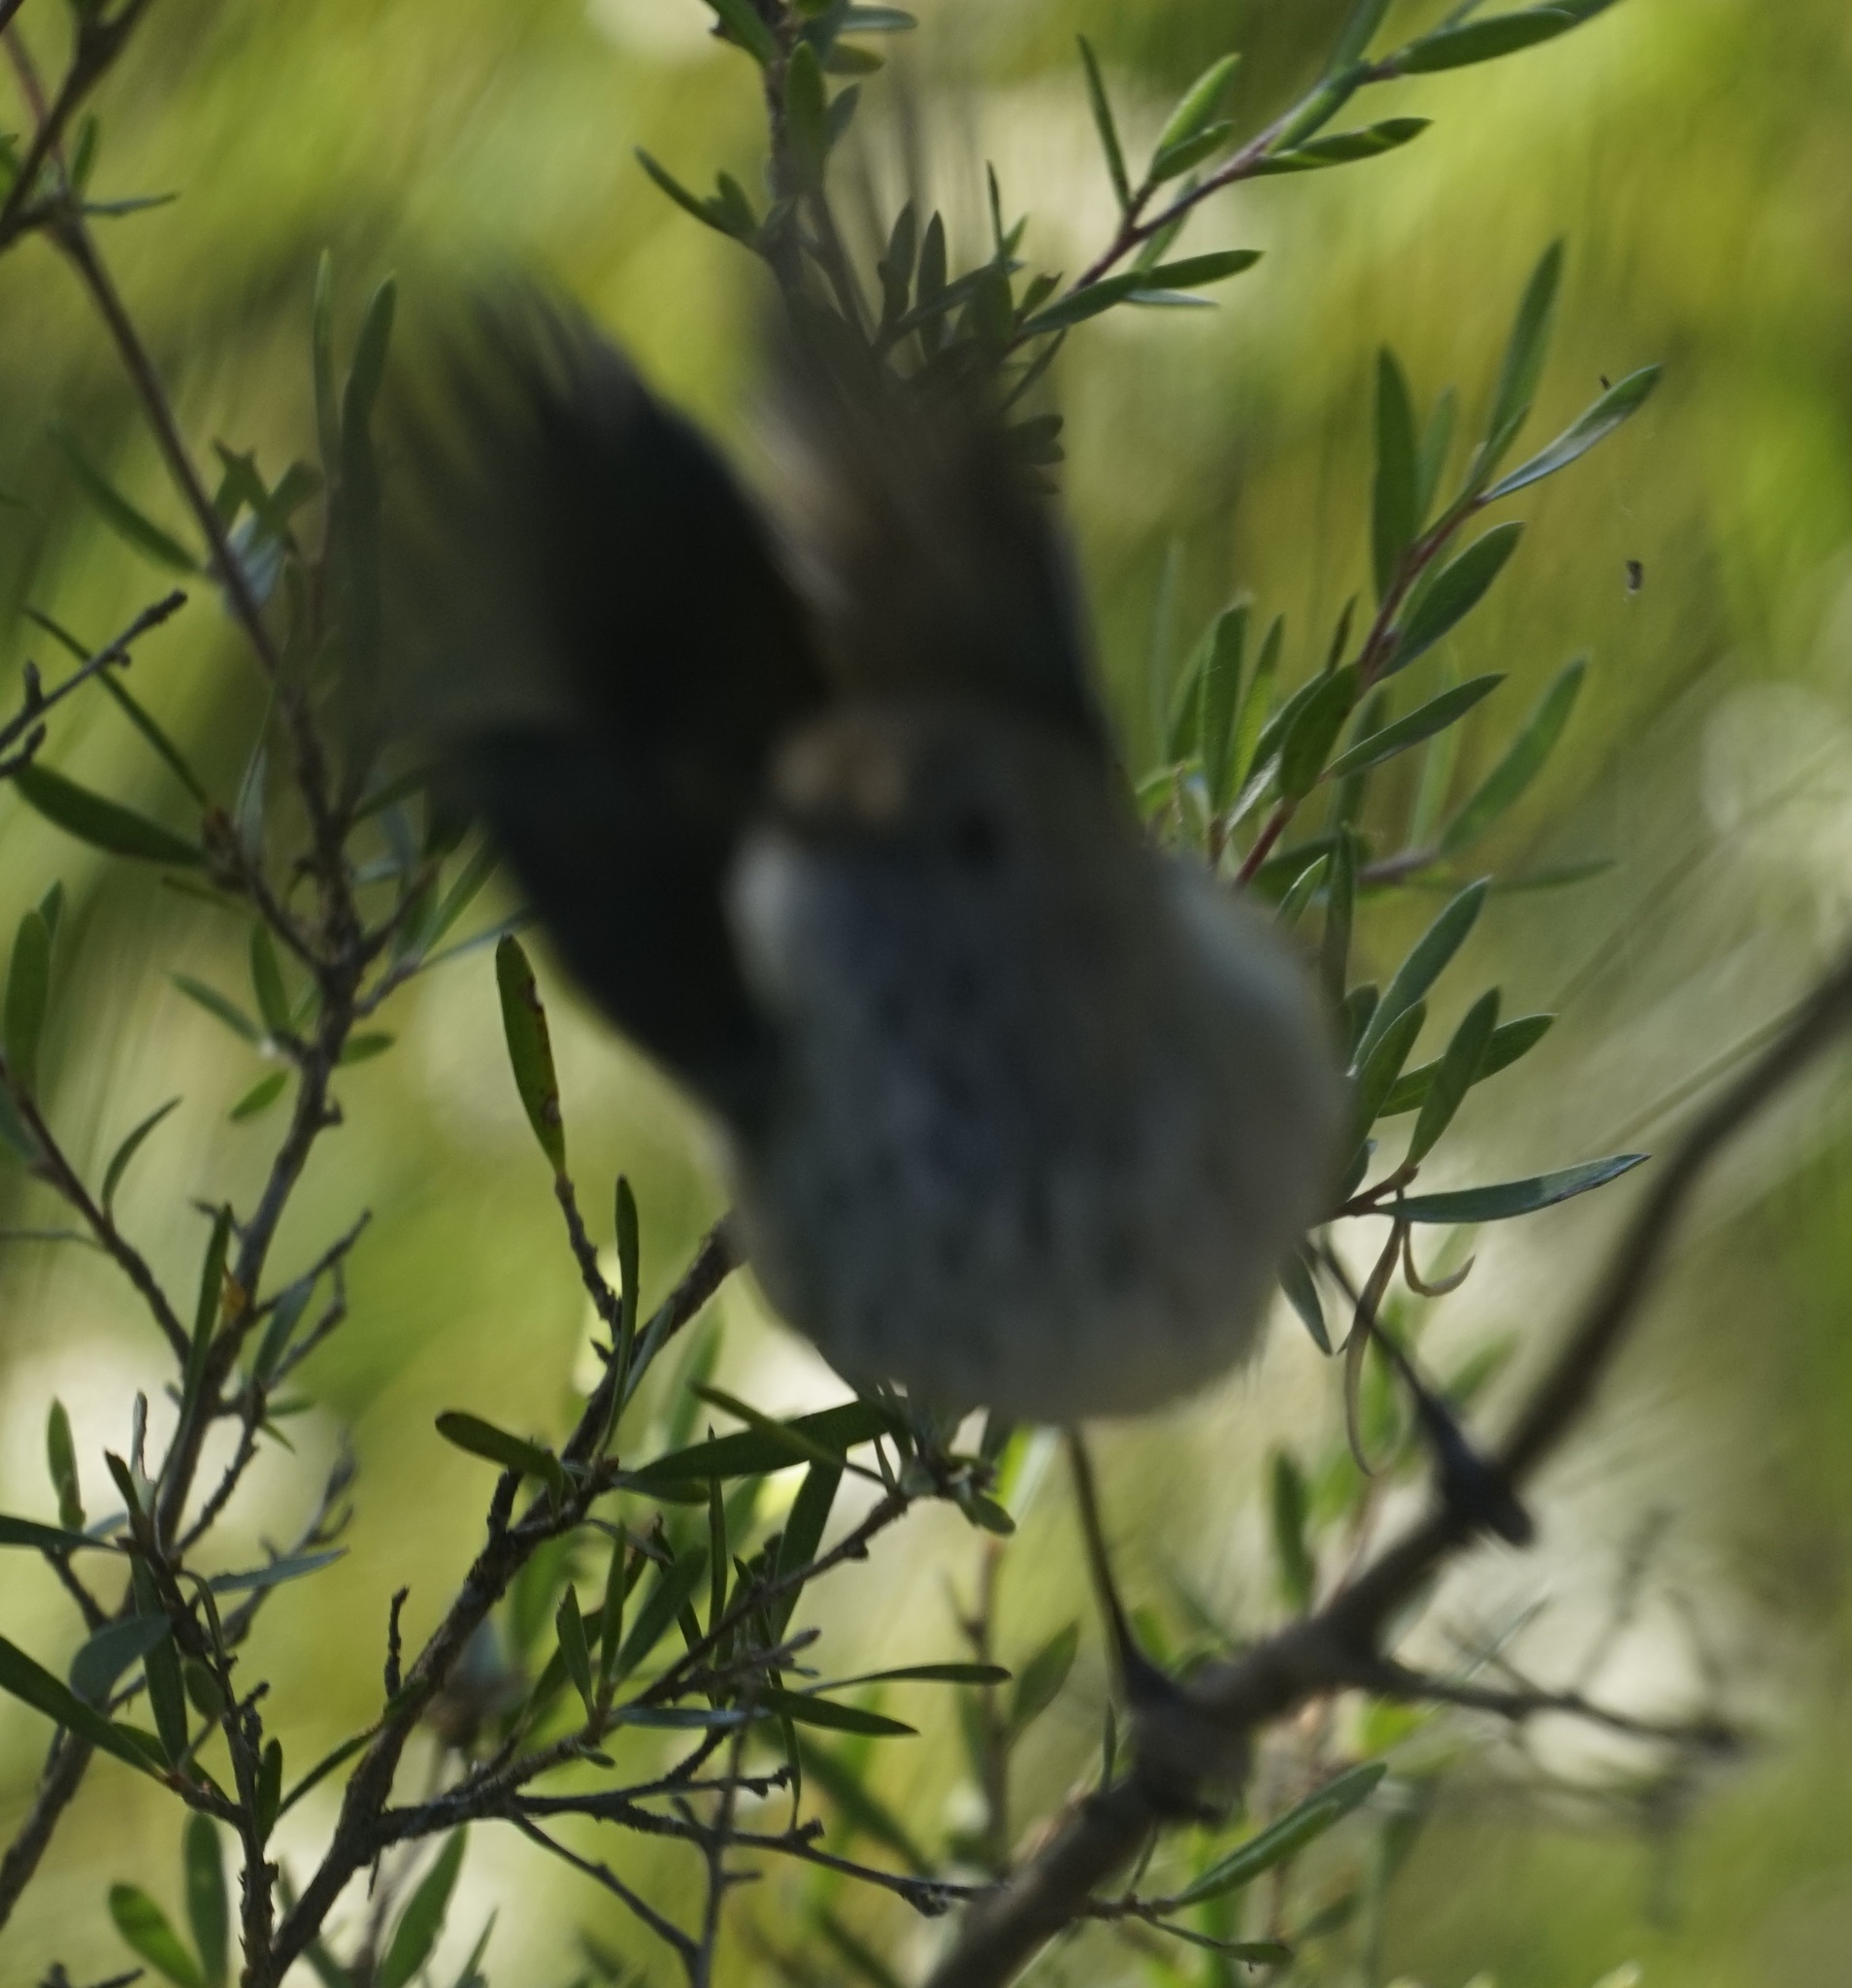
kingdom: Animalia
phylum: Chordata
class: Aves
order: Passeriformes
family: Acanthizidae
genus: Acanthiza
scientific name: Acanthiza pusilla
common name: Brown thornbill
